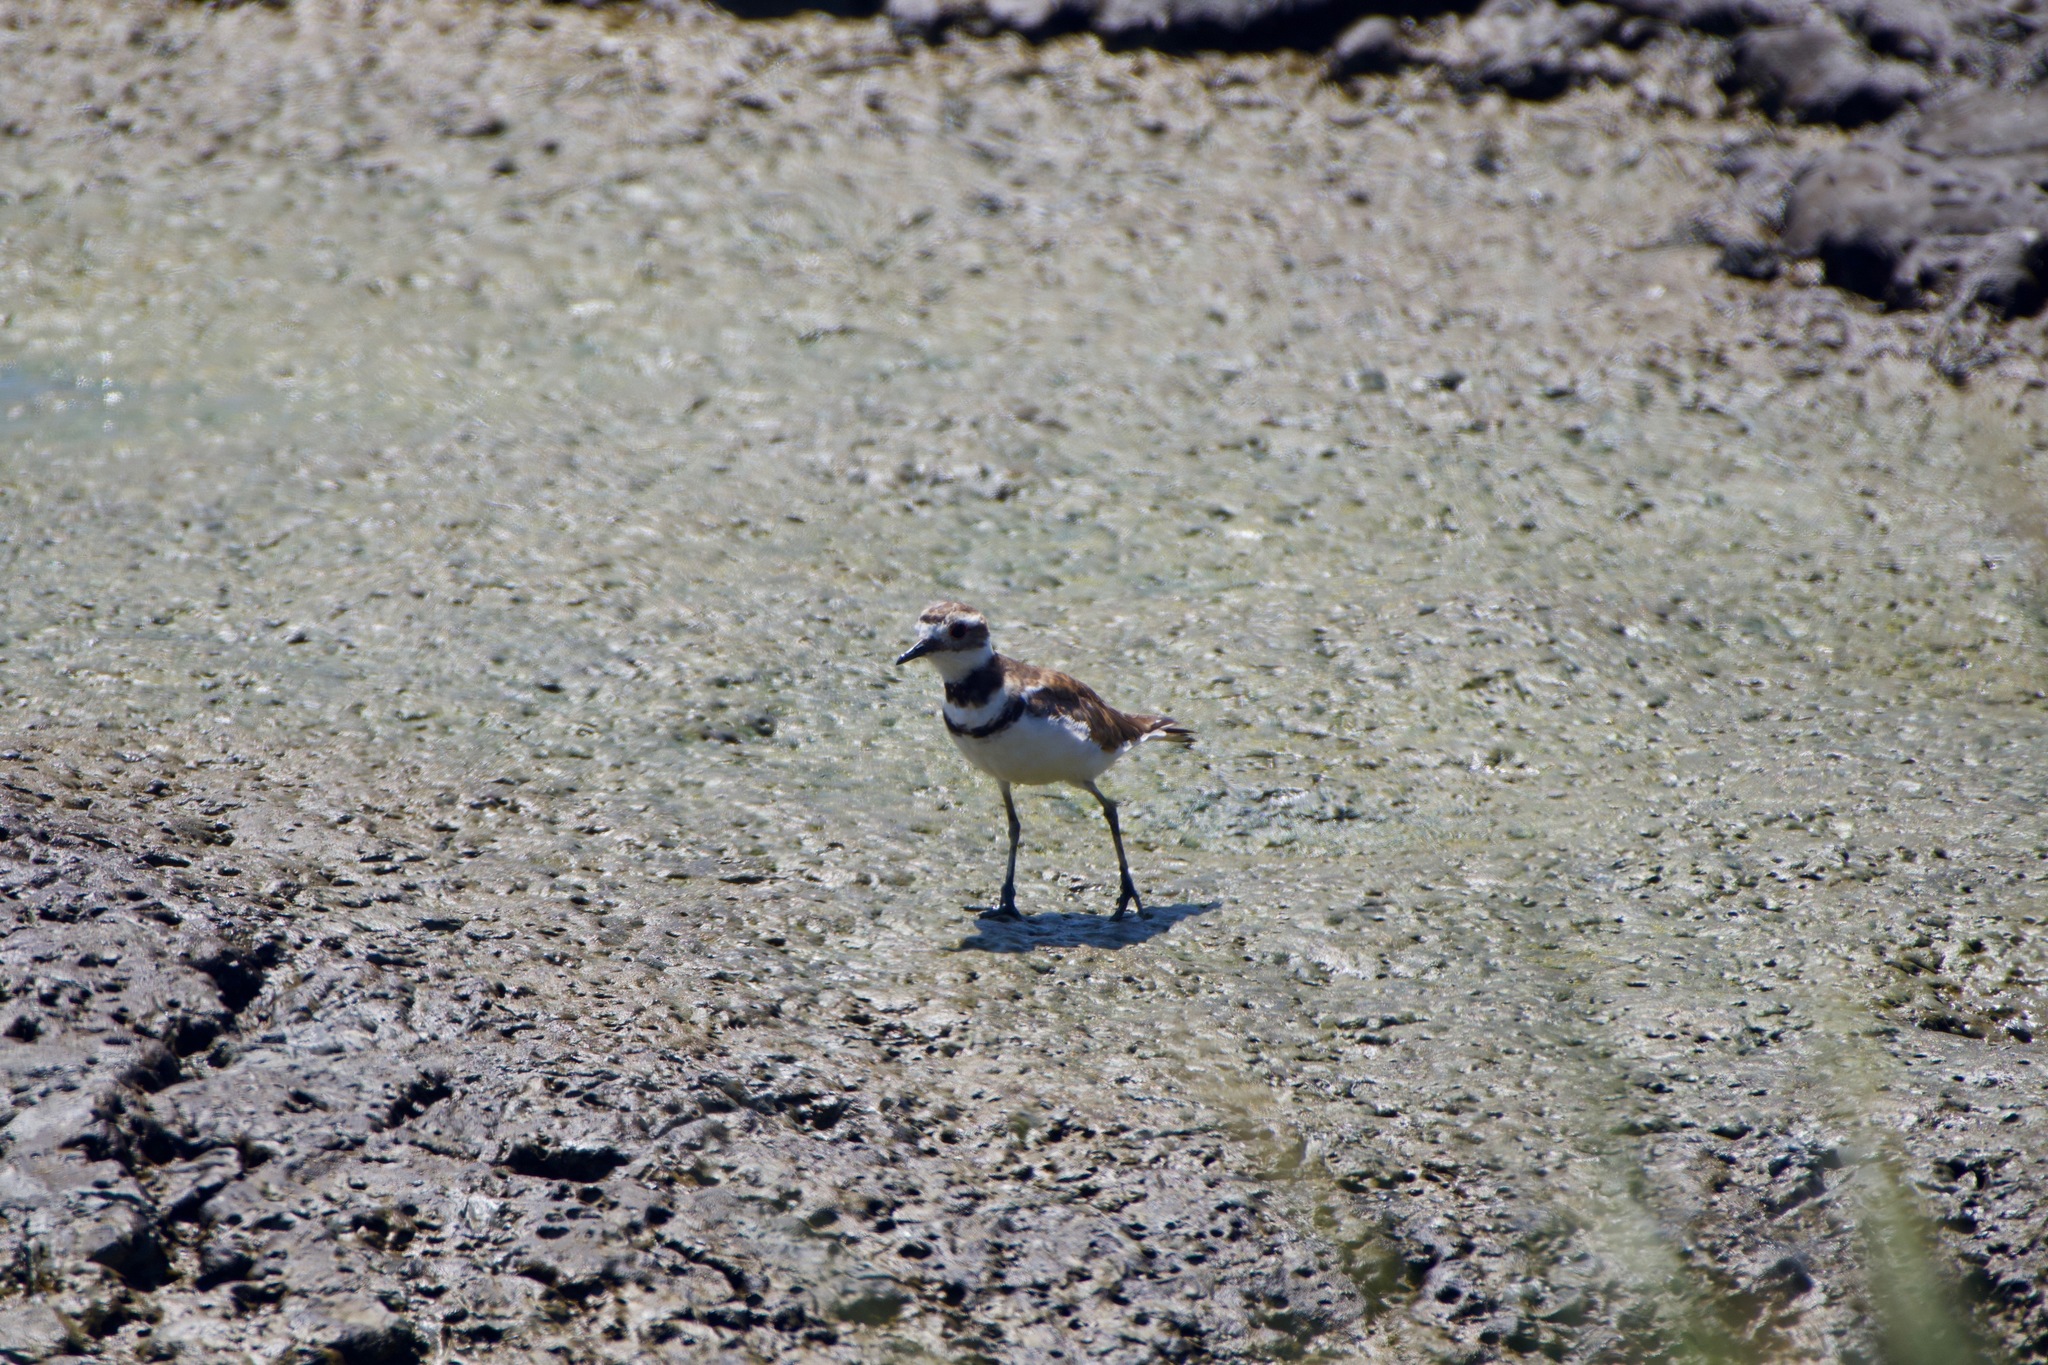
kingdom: Animalia
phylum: Chordata
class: Aves
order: Charadriiformes
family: Charadriidae
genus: Charadrius
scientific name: Charadrius vociferus
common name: Killdeer
